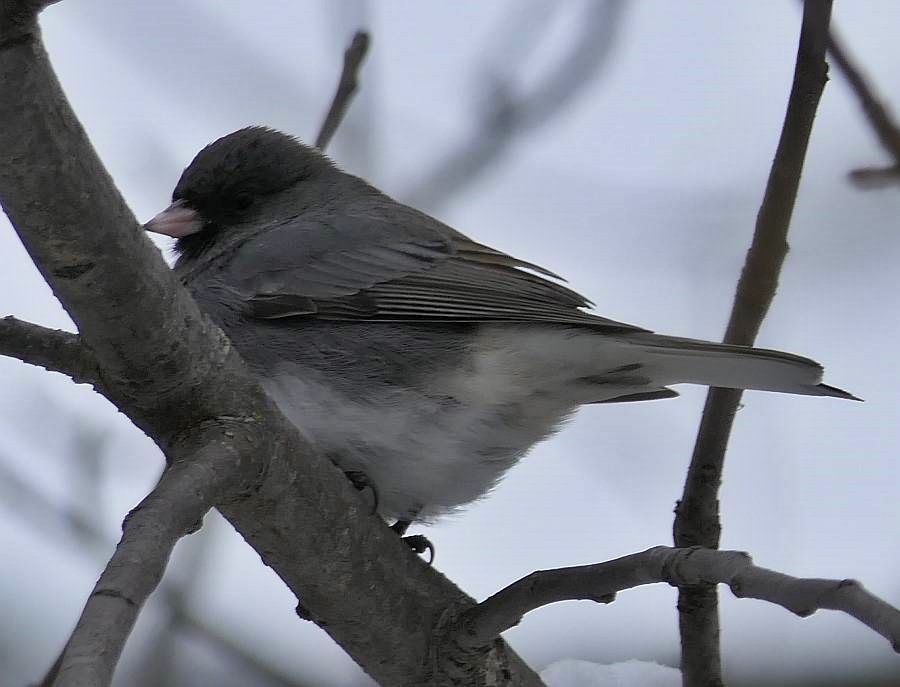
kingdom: Animalia
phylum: Chordata
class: Aves
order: Passeriformes
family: Passerellidae
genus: Junco
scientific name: Junco hyemalis
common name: Dark-eyed junco
